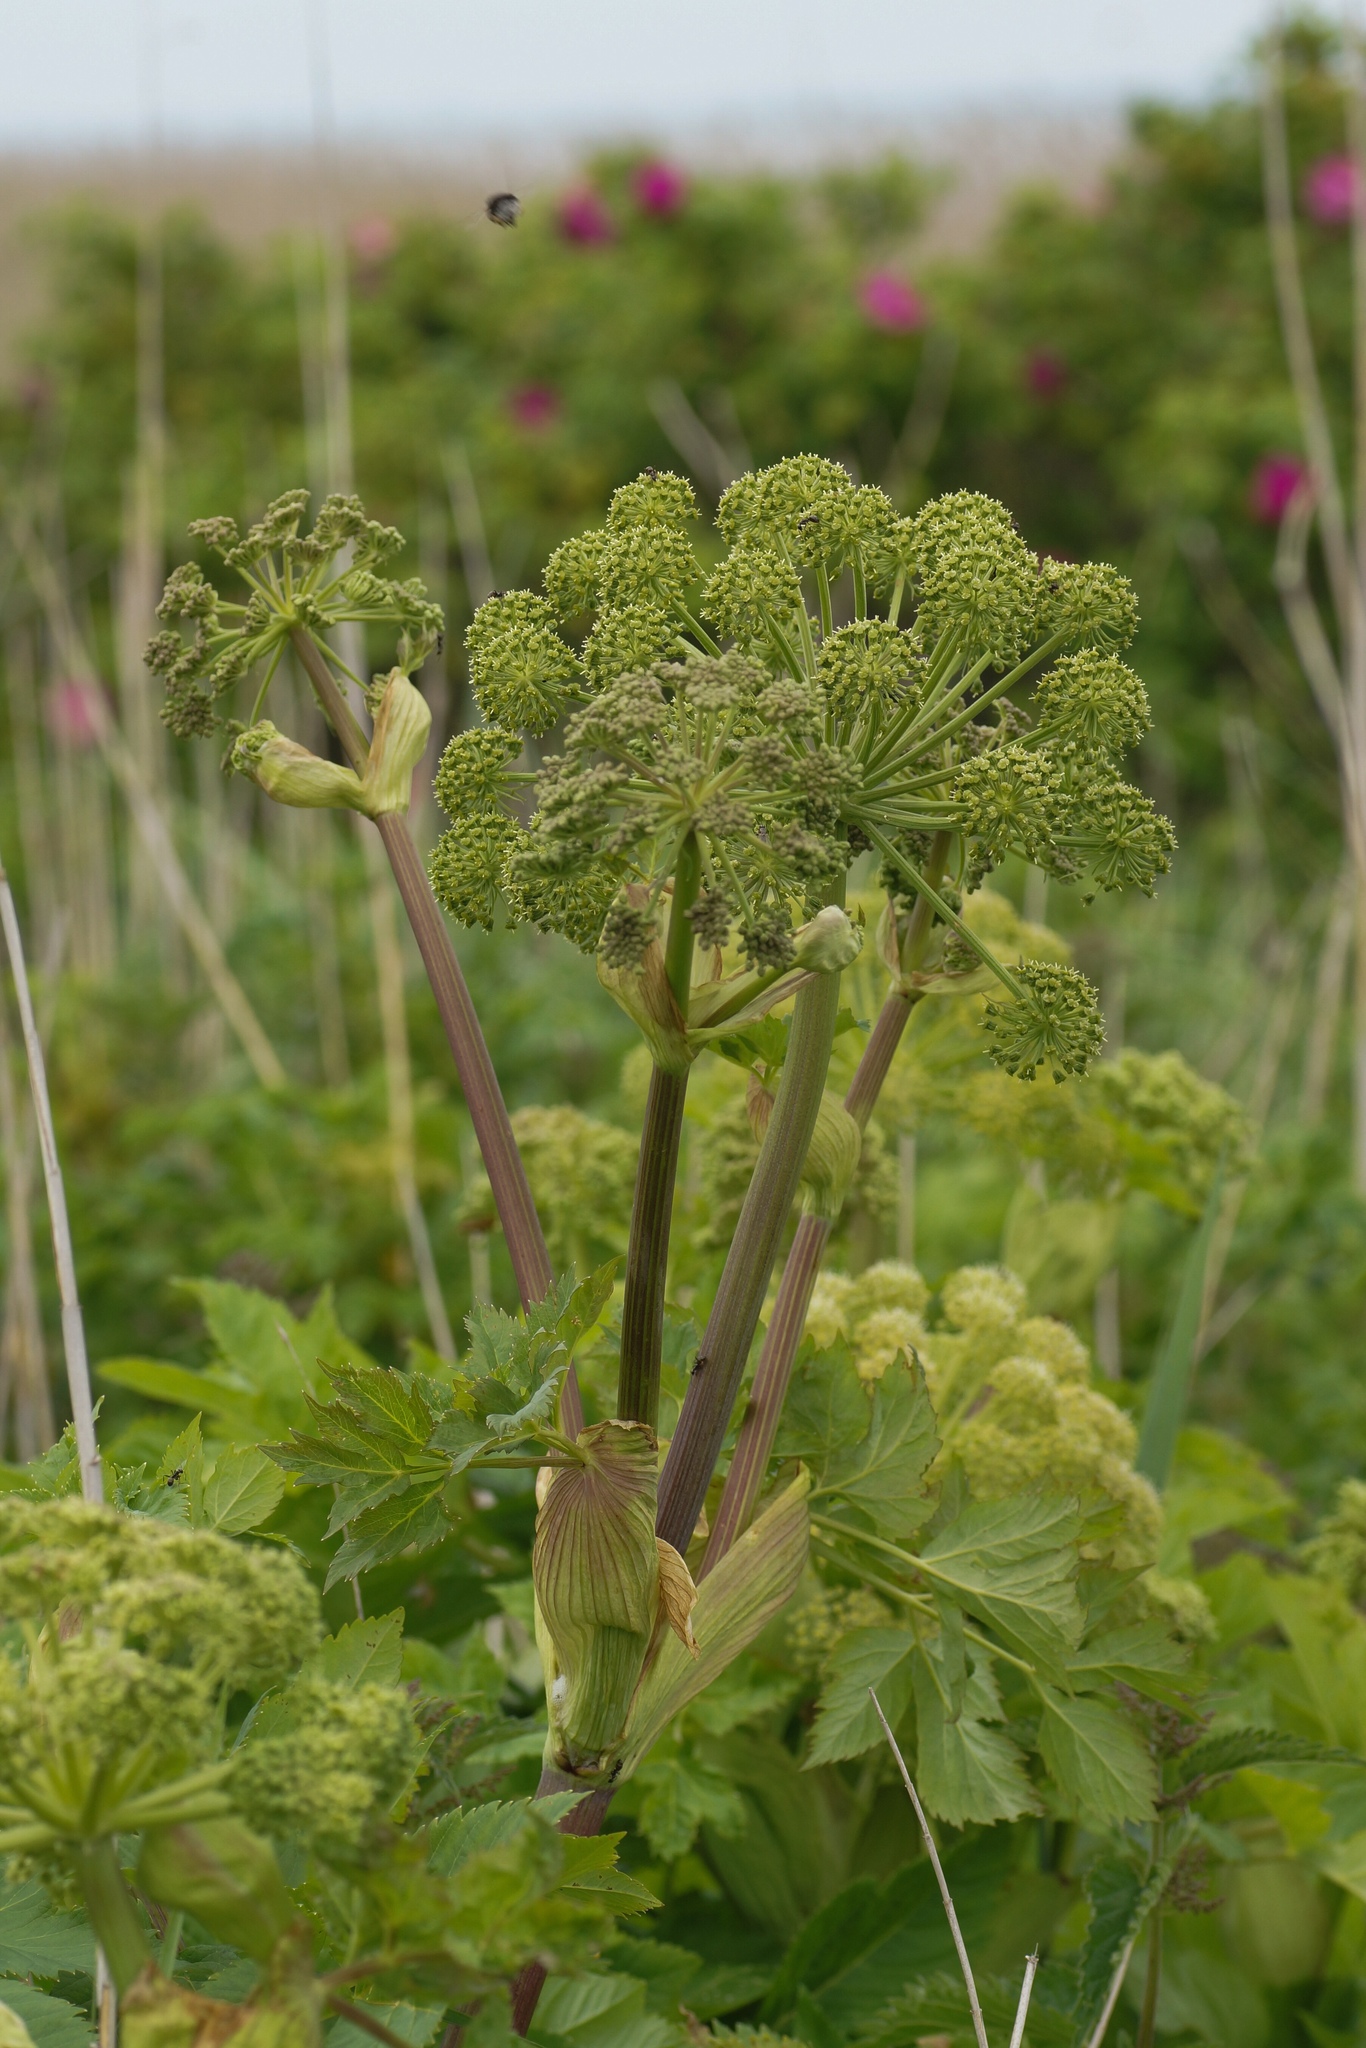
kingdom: Plantae
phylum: Tracheophyta
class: Magnoliopsida
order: Apiales
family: Apiaceae
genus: Angelica
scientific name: Angelica archangelica
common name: Garden angelica
